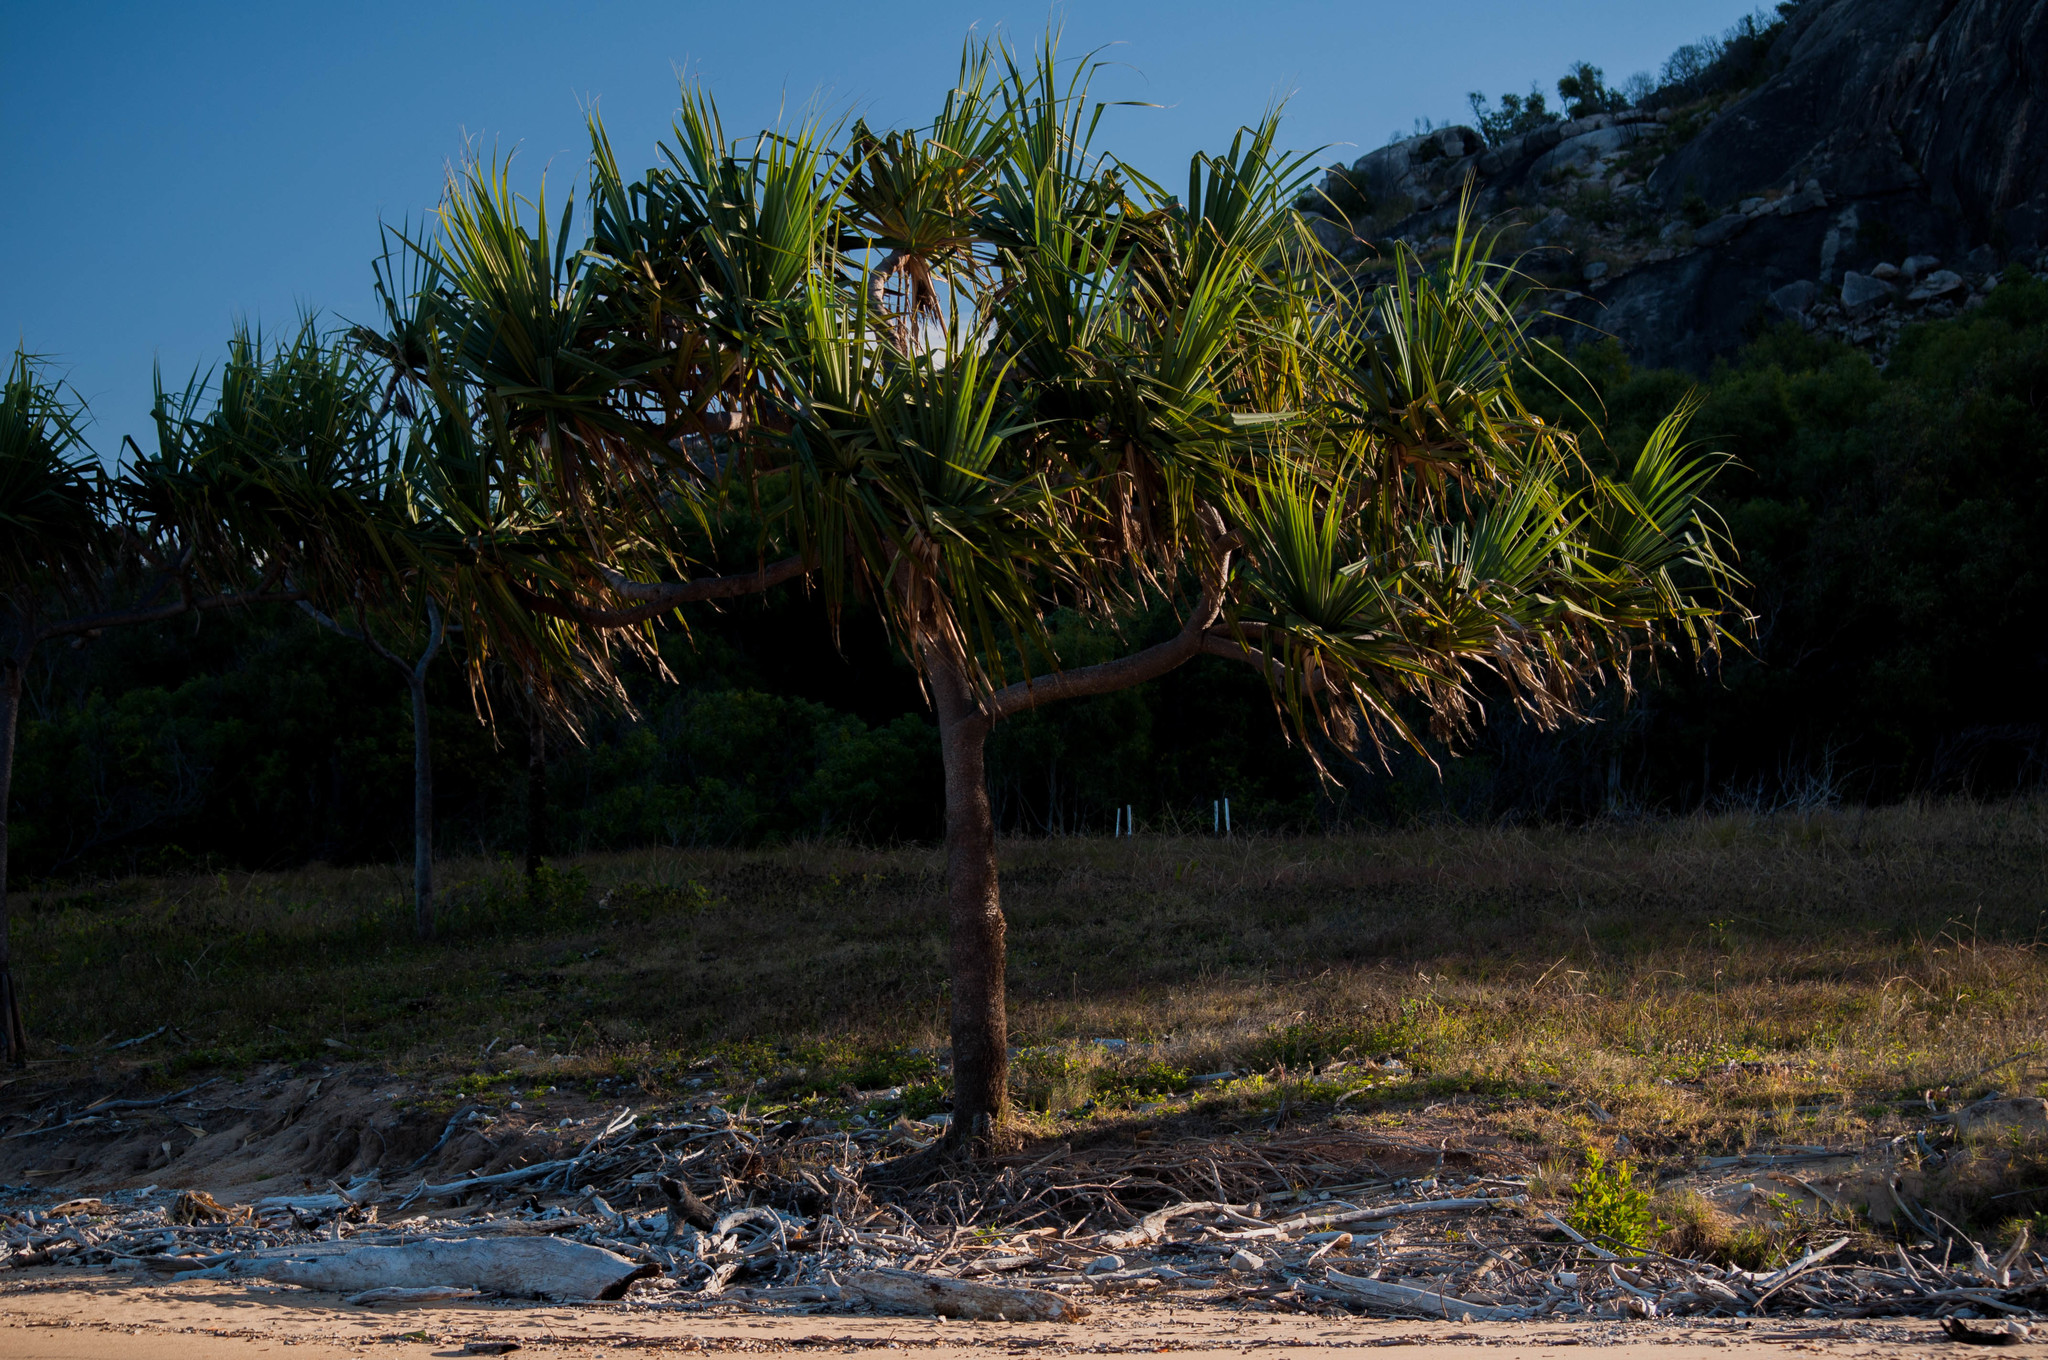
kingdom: Plantae
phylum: Tracheophyta
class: Liliopsida
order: Pandanales
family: Pandanaceae
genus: Pandanus
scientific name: Pandanus tectorius
